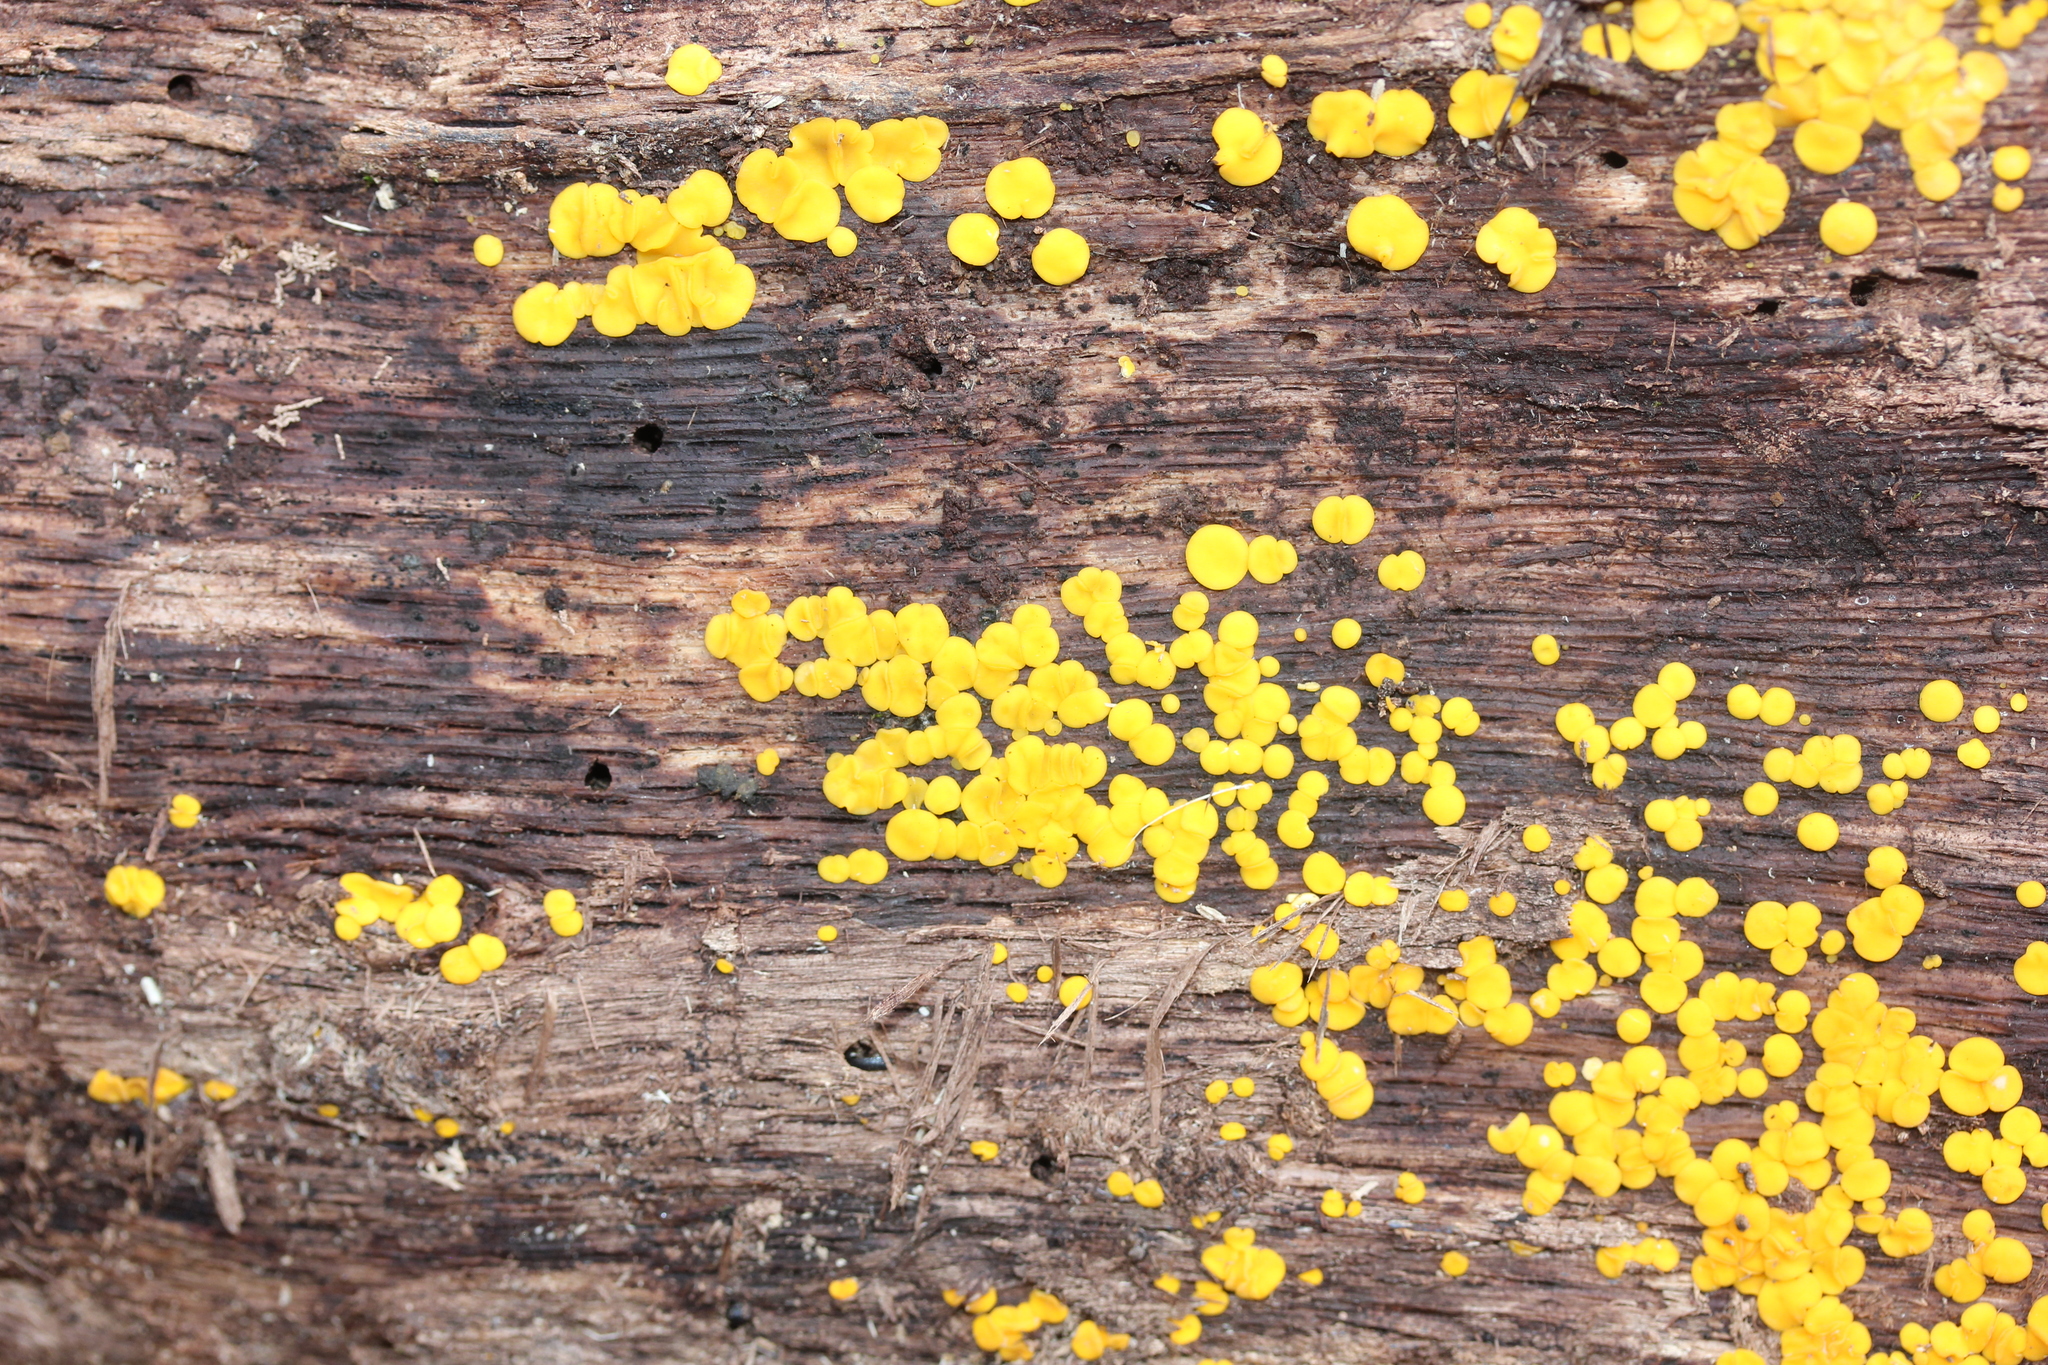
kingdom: Fungi
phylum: Ascomycota
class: Leotiomycetes
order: Helotiales
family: Pezizellaceae
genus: Calycina
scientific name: Calycina citrina
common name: Yellow fairy cups
